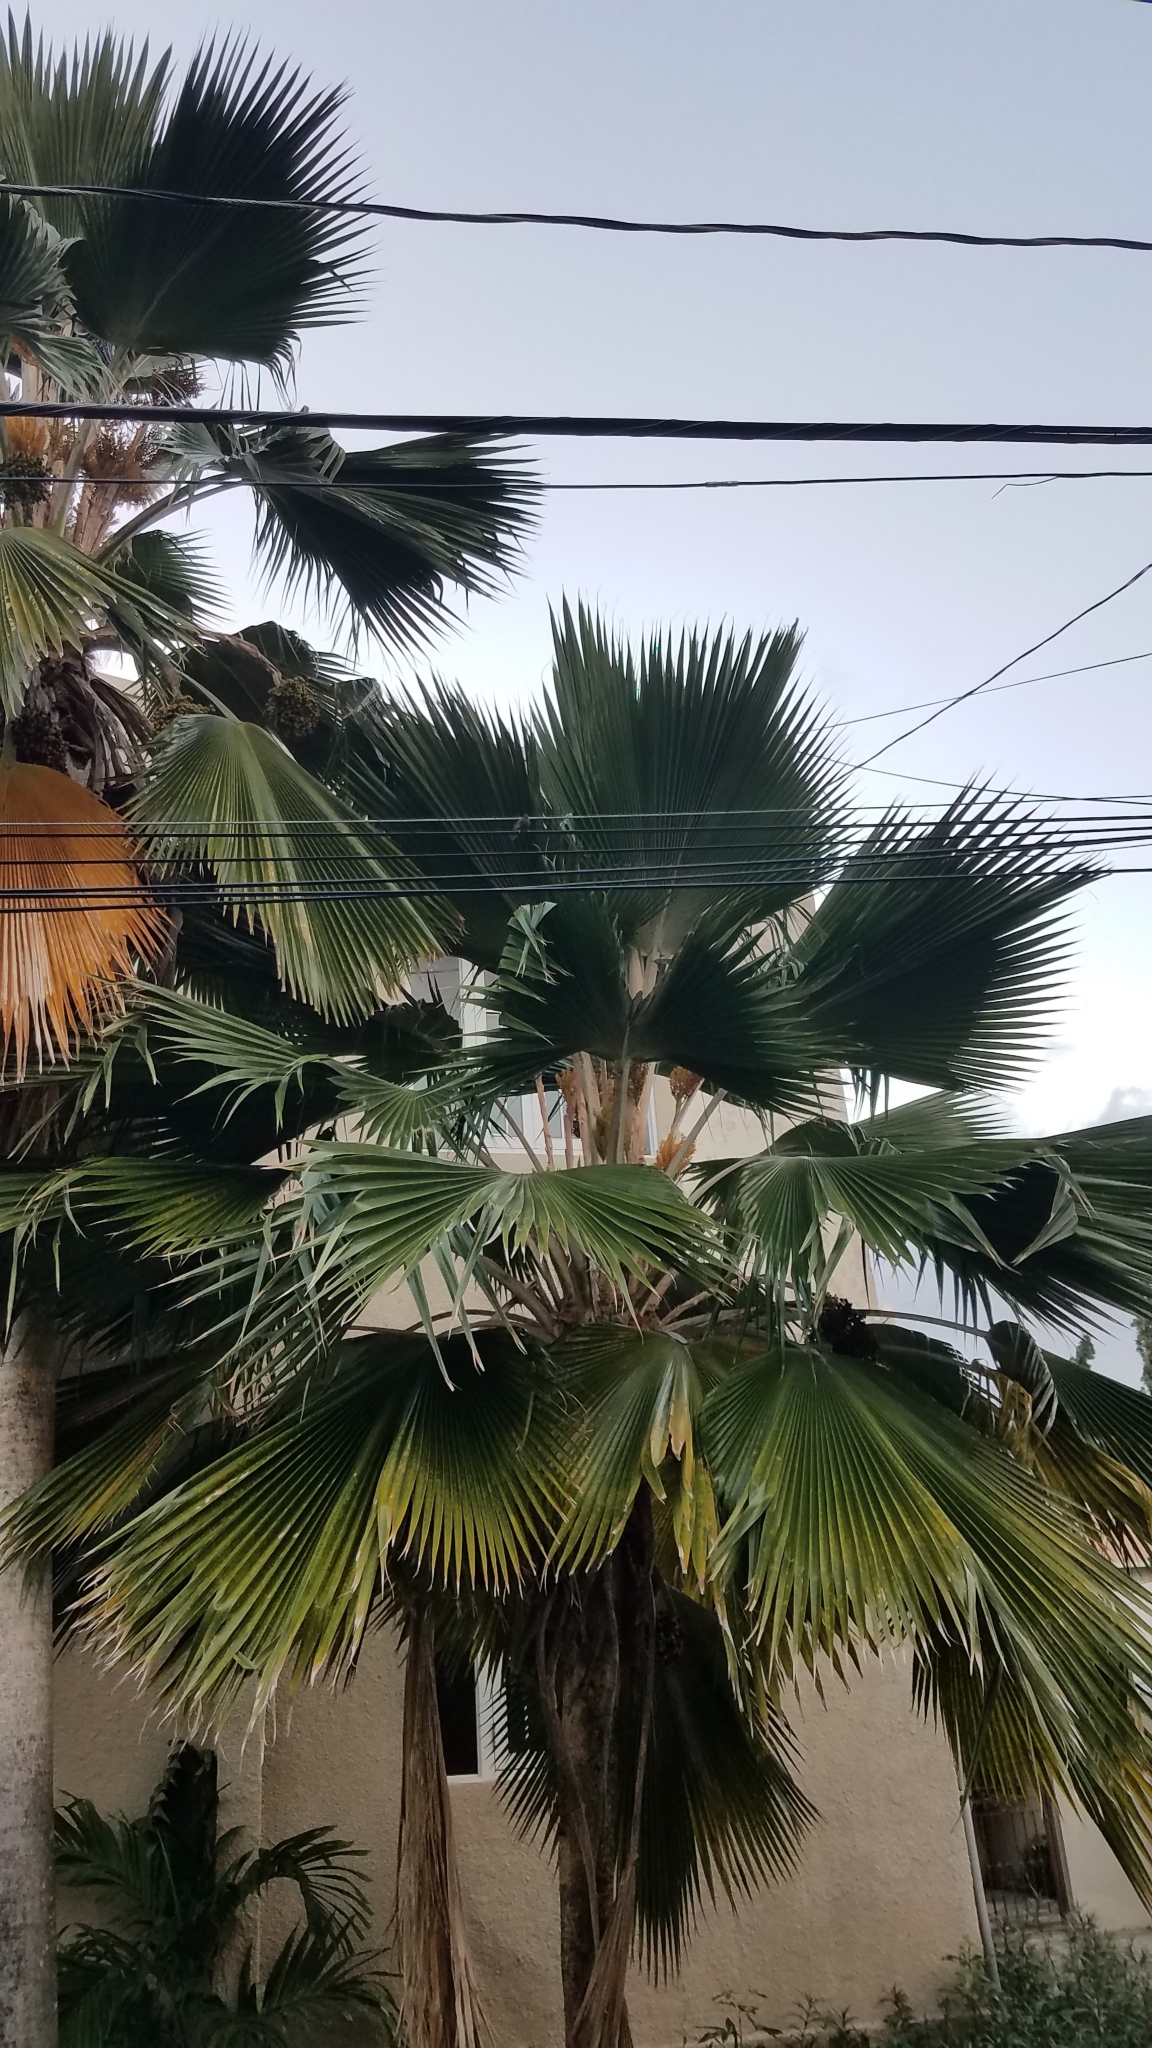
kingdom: Animalia
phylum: Chordata
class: Aves
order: Passeriformes
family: Thraupidae
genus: Melanospiza
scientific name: Melanospiza bicolor
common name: Black-faced grassquit
